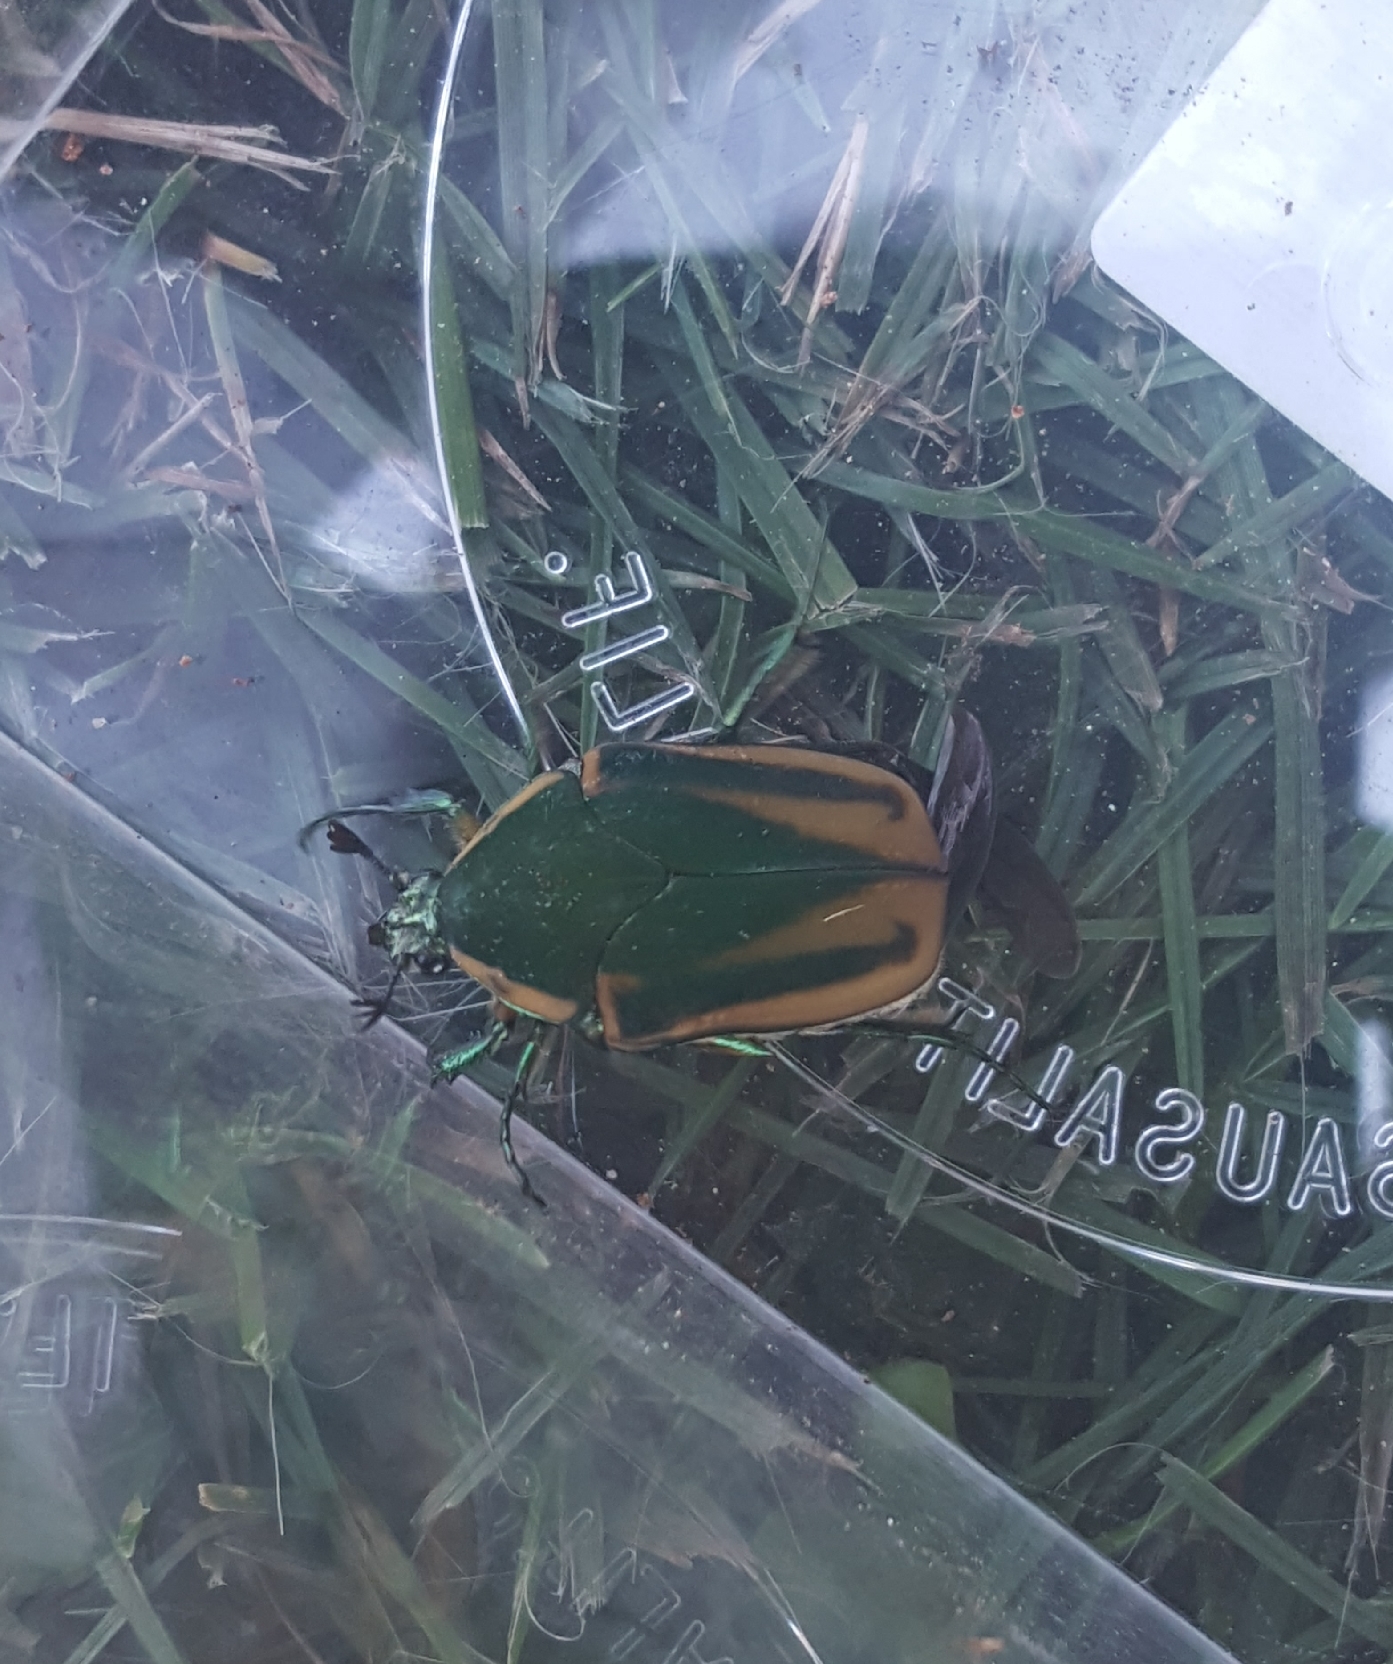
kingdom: Animalia
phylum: Arthropoda
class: Insecta
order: Coleoptera
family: Scarabaeidae
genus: Cotinis
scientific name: Cotinis nitida
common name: Common green june beetle
